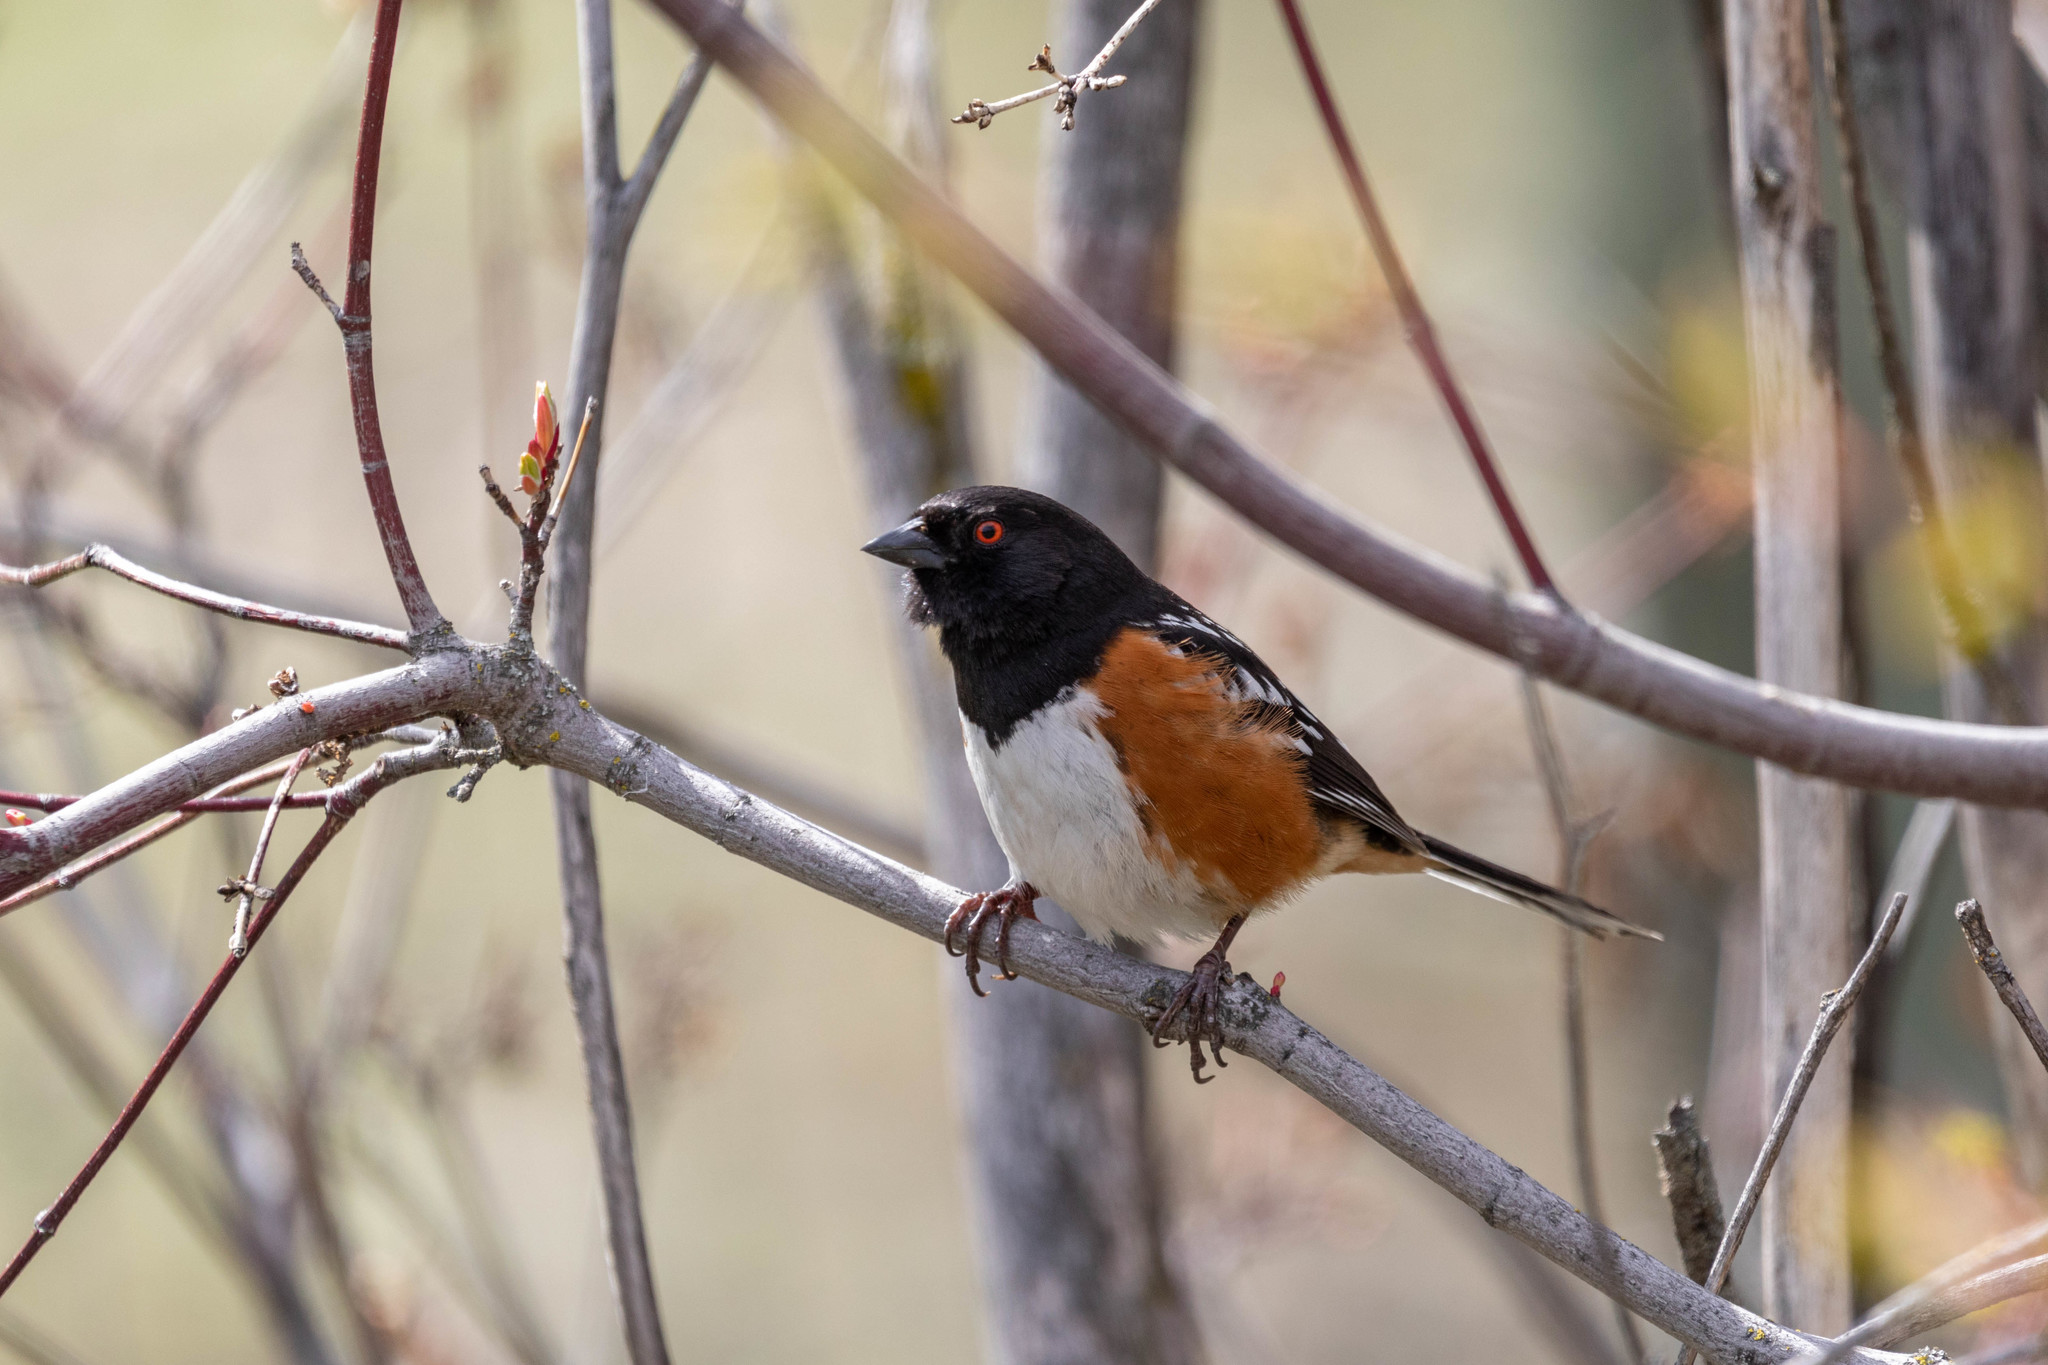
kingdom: Animalia
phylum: Chordata
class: Aves
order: Passeriformes
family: Passerellidae
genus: Pipilo
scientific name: Pipilo maculatus
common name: Spotted towhee
